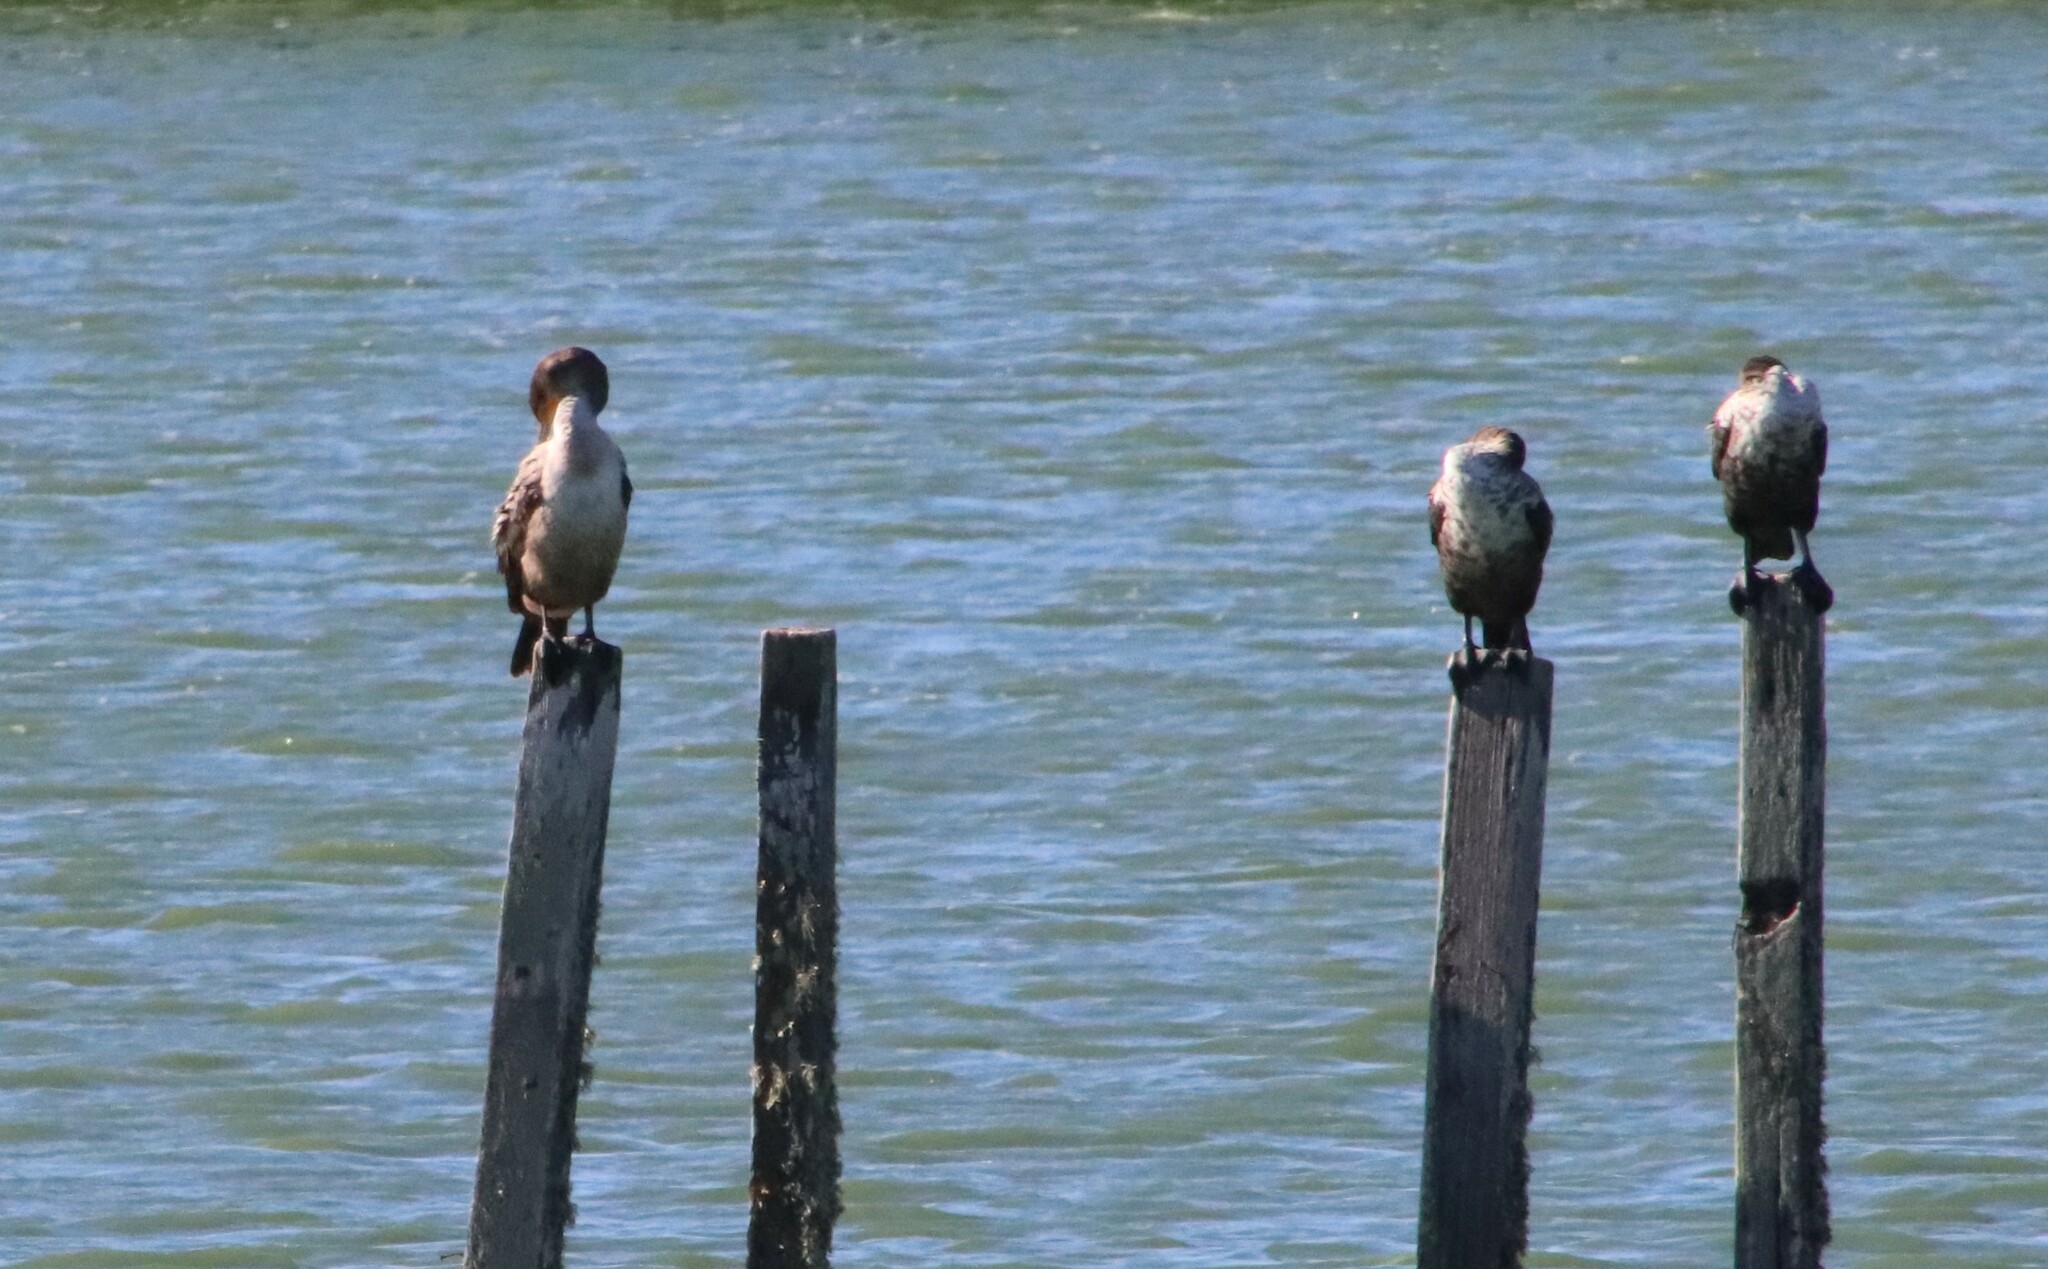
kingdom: Animalia
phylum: Chordata
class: Aves
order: Suliformes
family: Phalacrocoracidae
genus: Phalacrocorax
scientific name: Phalacrocorax auritus
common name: Double-crested cormorant
